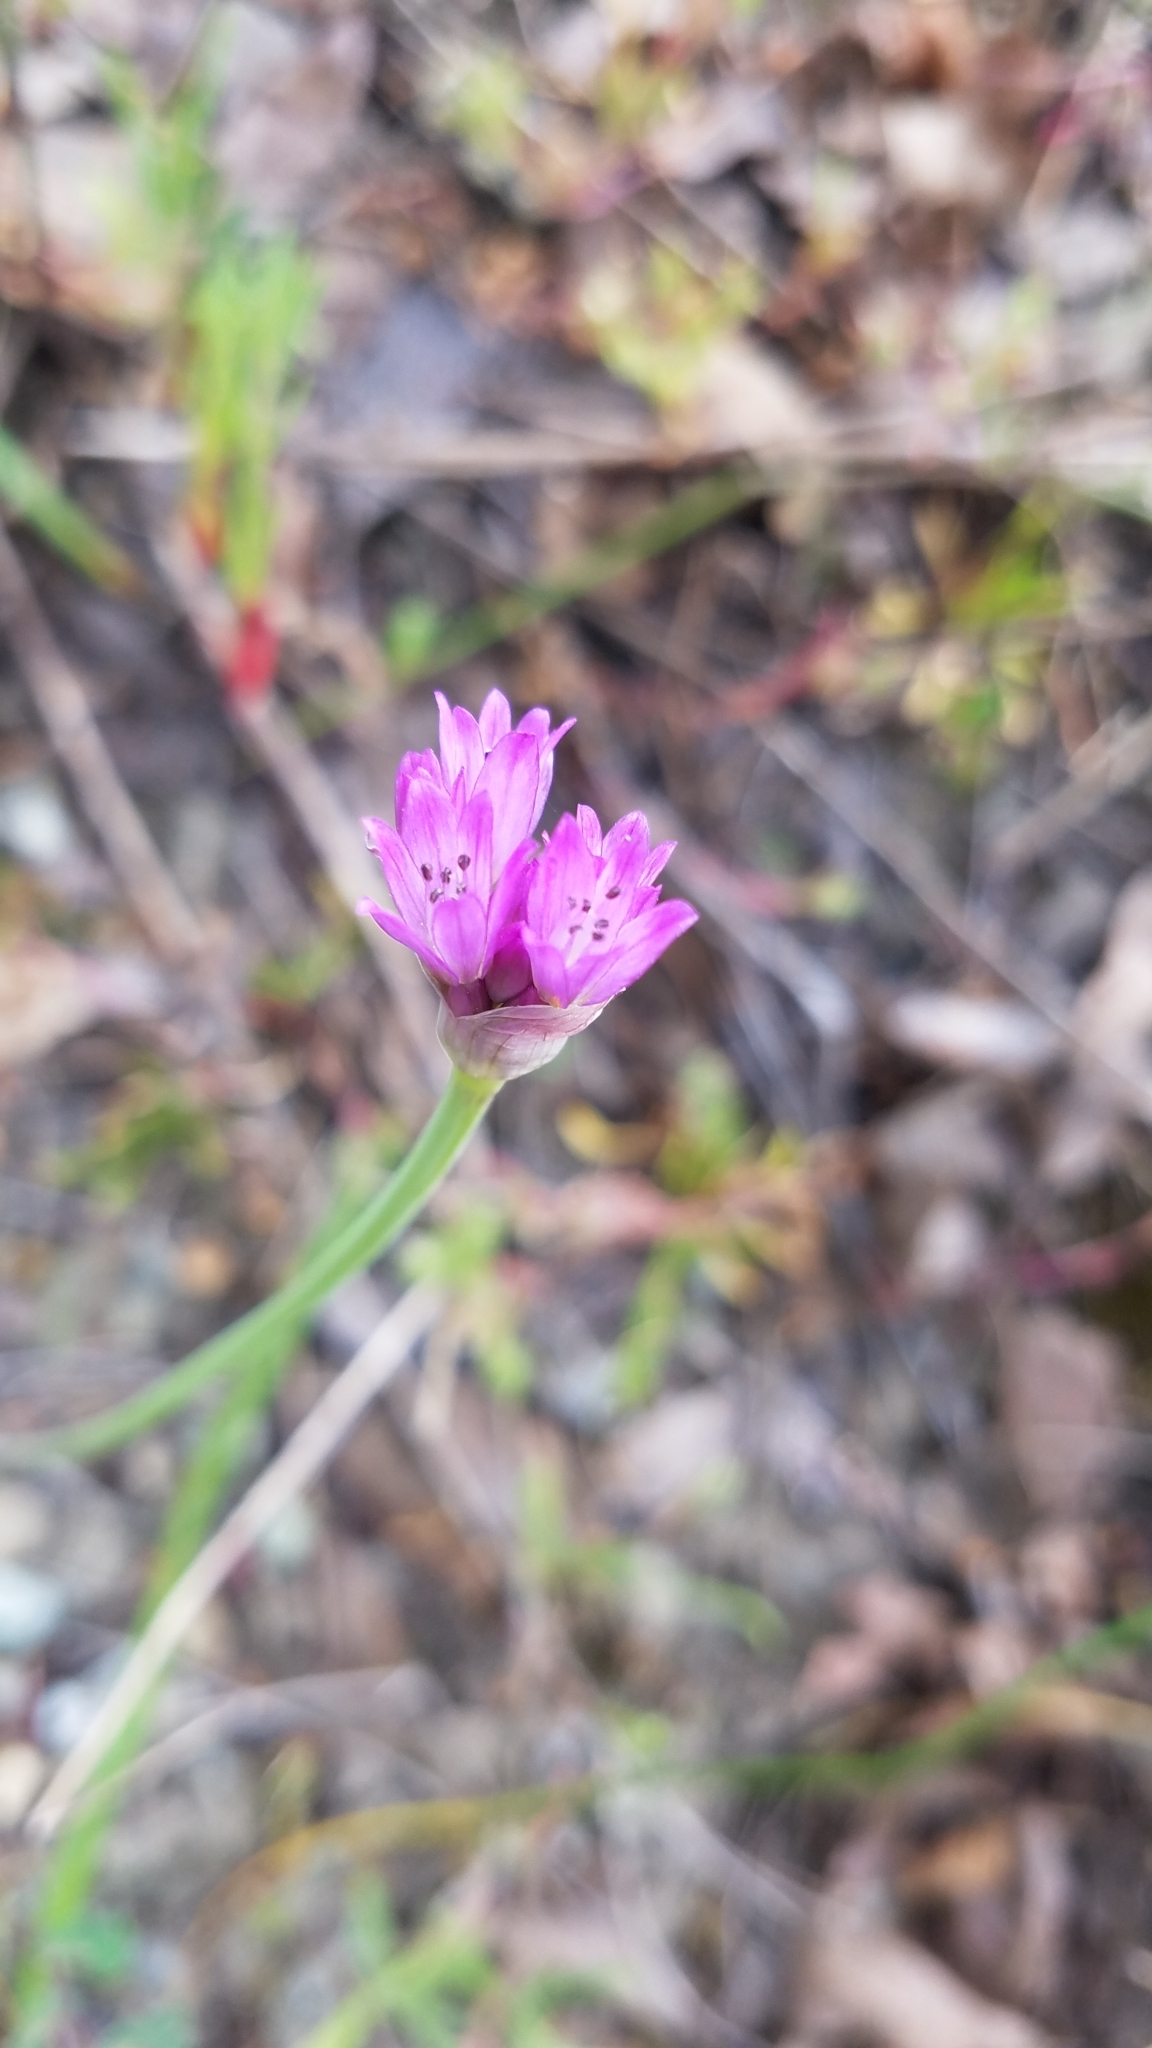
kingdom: Plantae
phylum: Tracheophyta
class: Liliopsida
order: Asparagales
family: Amaryllidaceae
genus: Allium
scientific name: Allium serra
